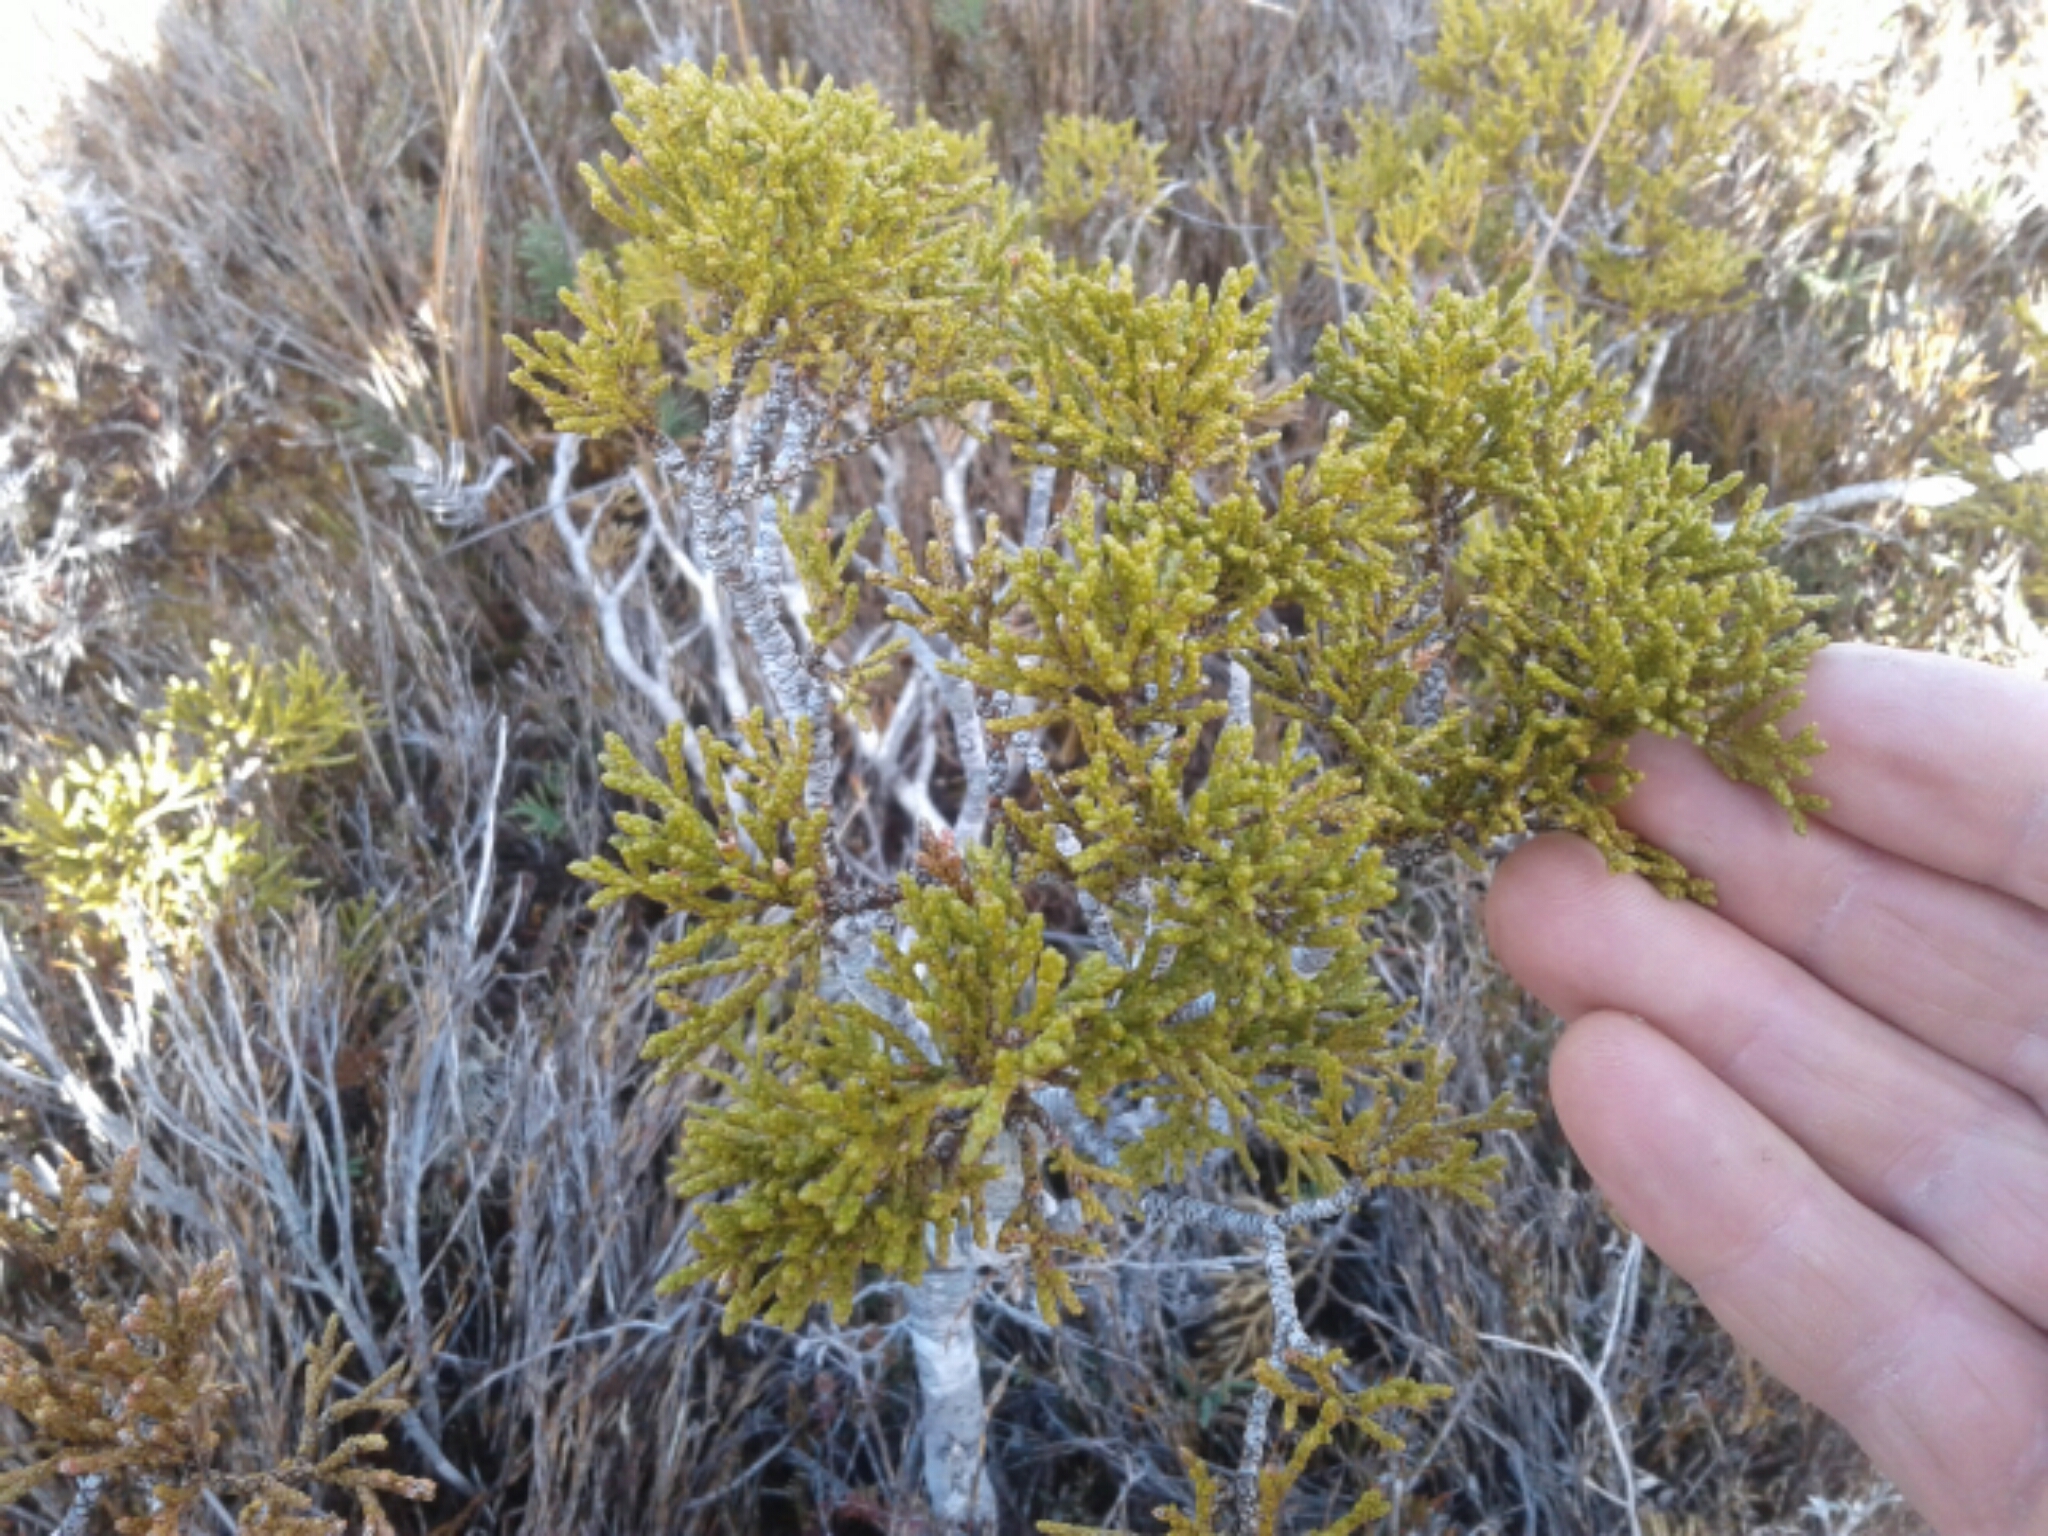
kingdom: Plantae
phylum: Tracheophyta
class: Pinopsida
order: Pinales
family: Podocarpaceae
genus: Halocarpus
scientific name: Halocarpus bidwillii
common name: Bog pine
